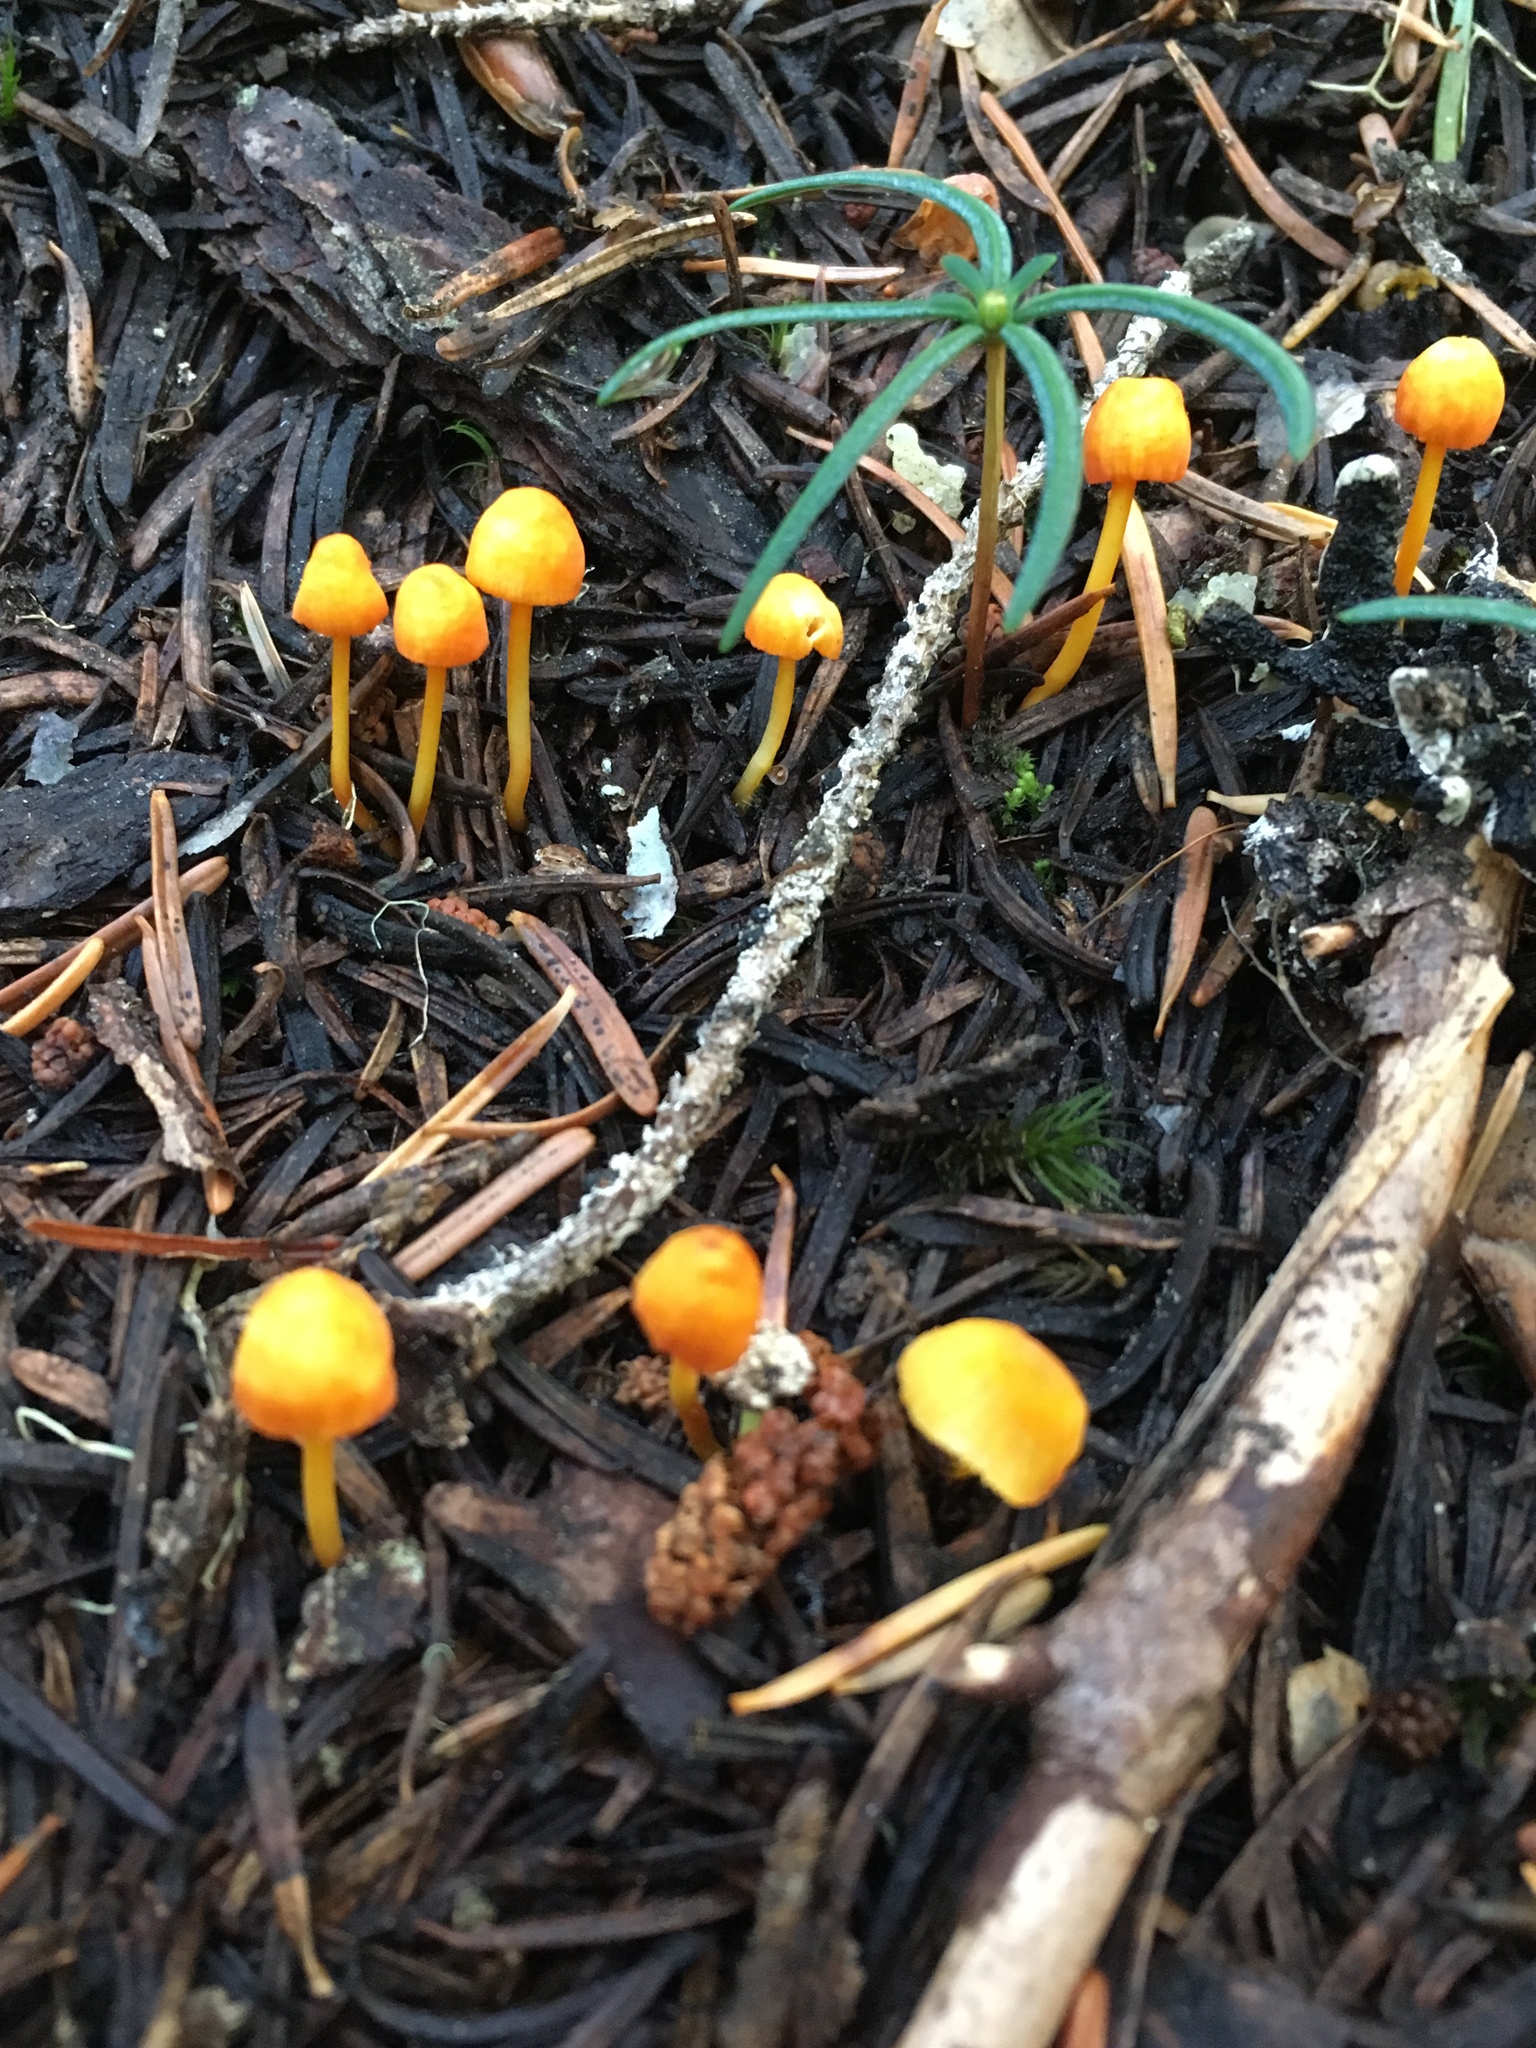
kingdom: Fungi
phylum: Basidiomycota
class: Agaricomycetes
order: Agaricales
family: Mycenaceae
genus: Mycena
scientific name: Mycena strobilinoidea
